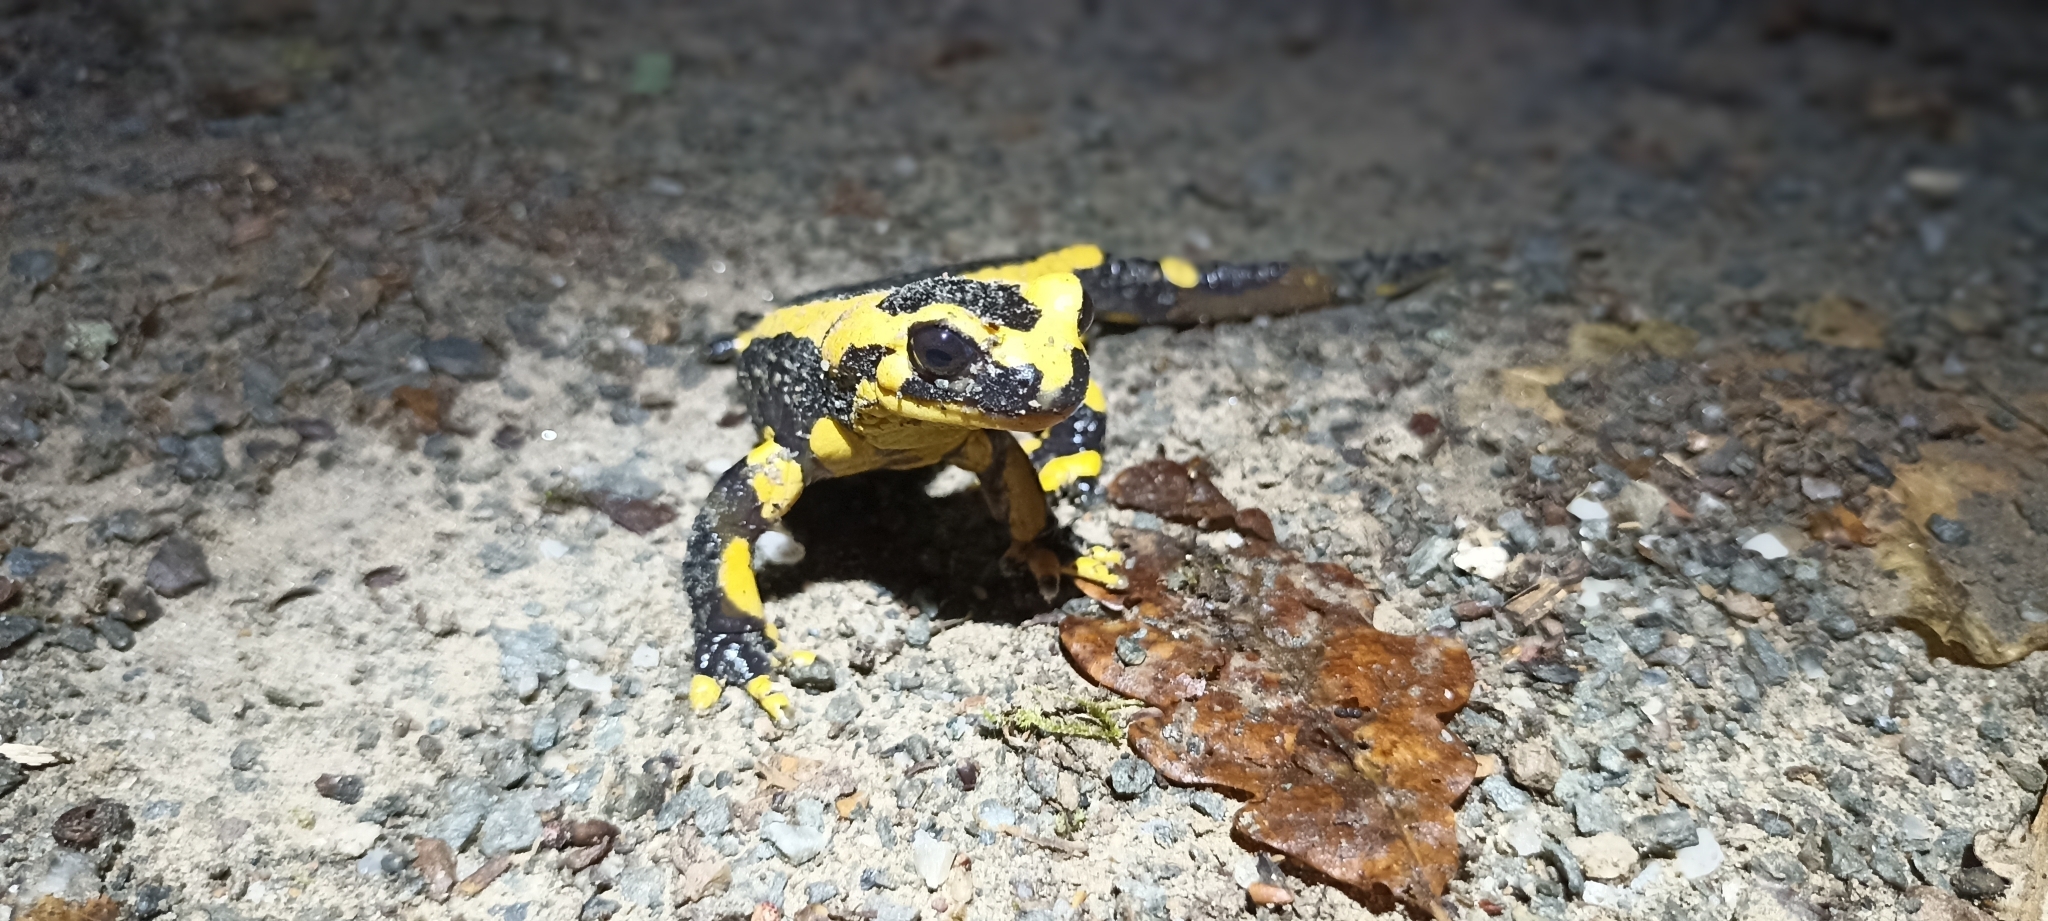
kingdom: Animalia
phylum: Chordata
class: Amphibia
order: Caudata
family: Salamandridae
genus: Salamandra
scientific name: Salamandra salamandra
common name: Fire salamander
